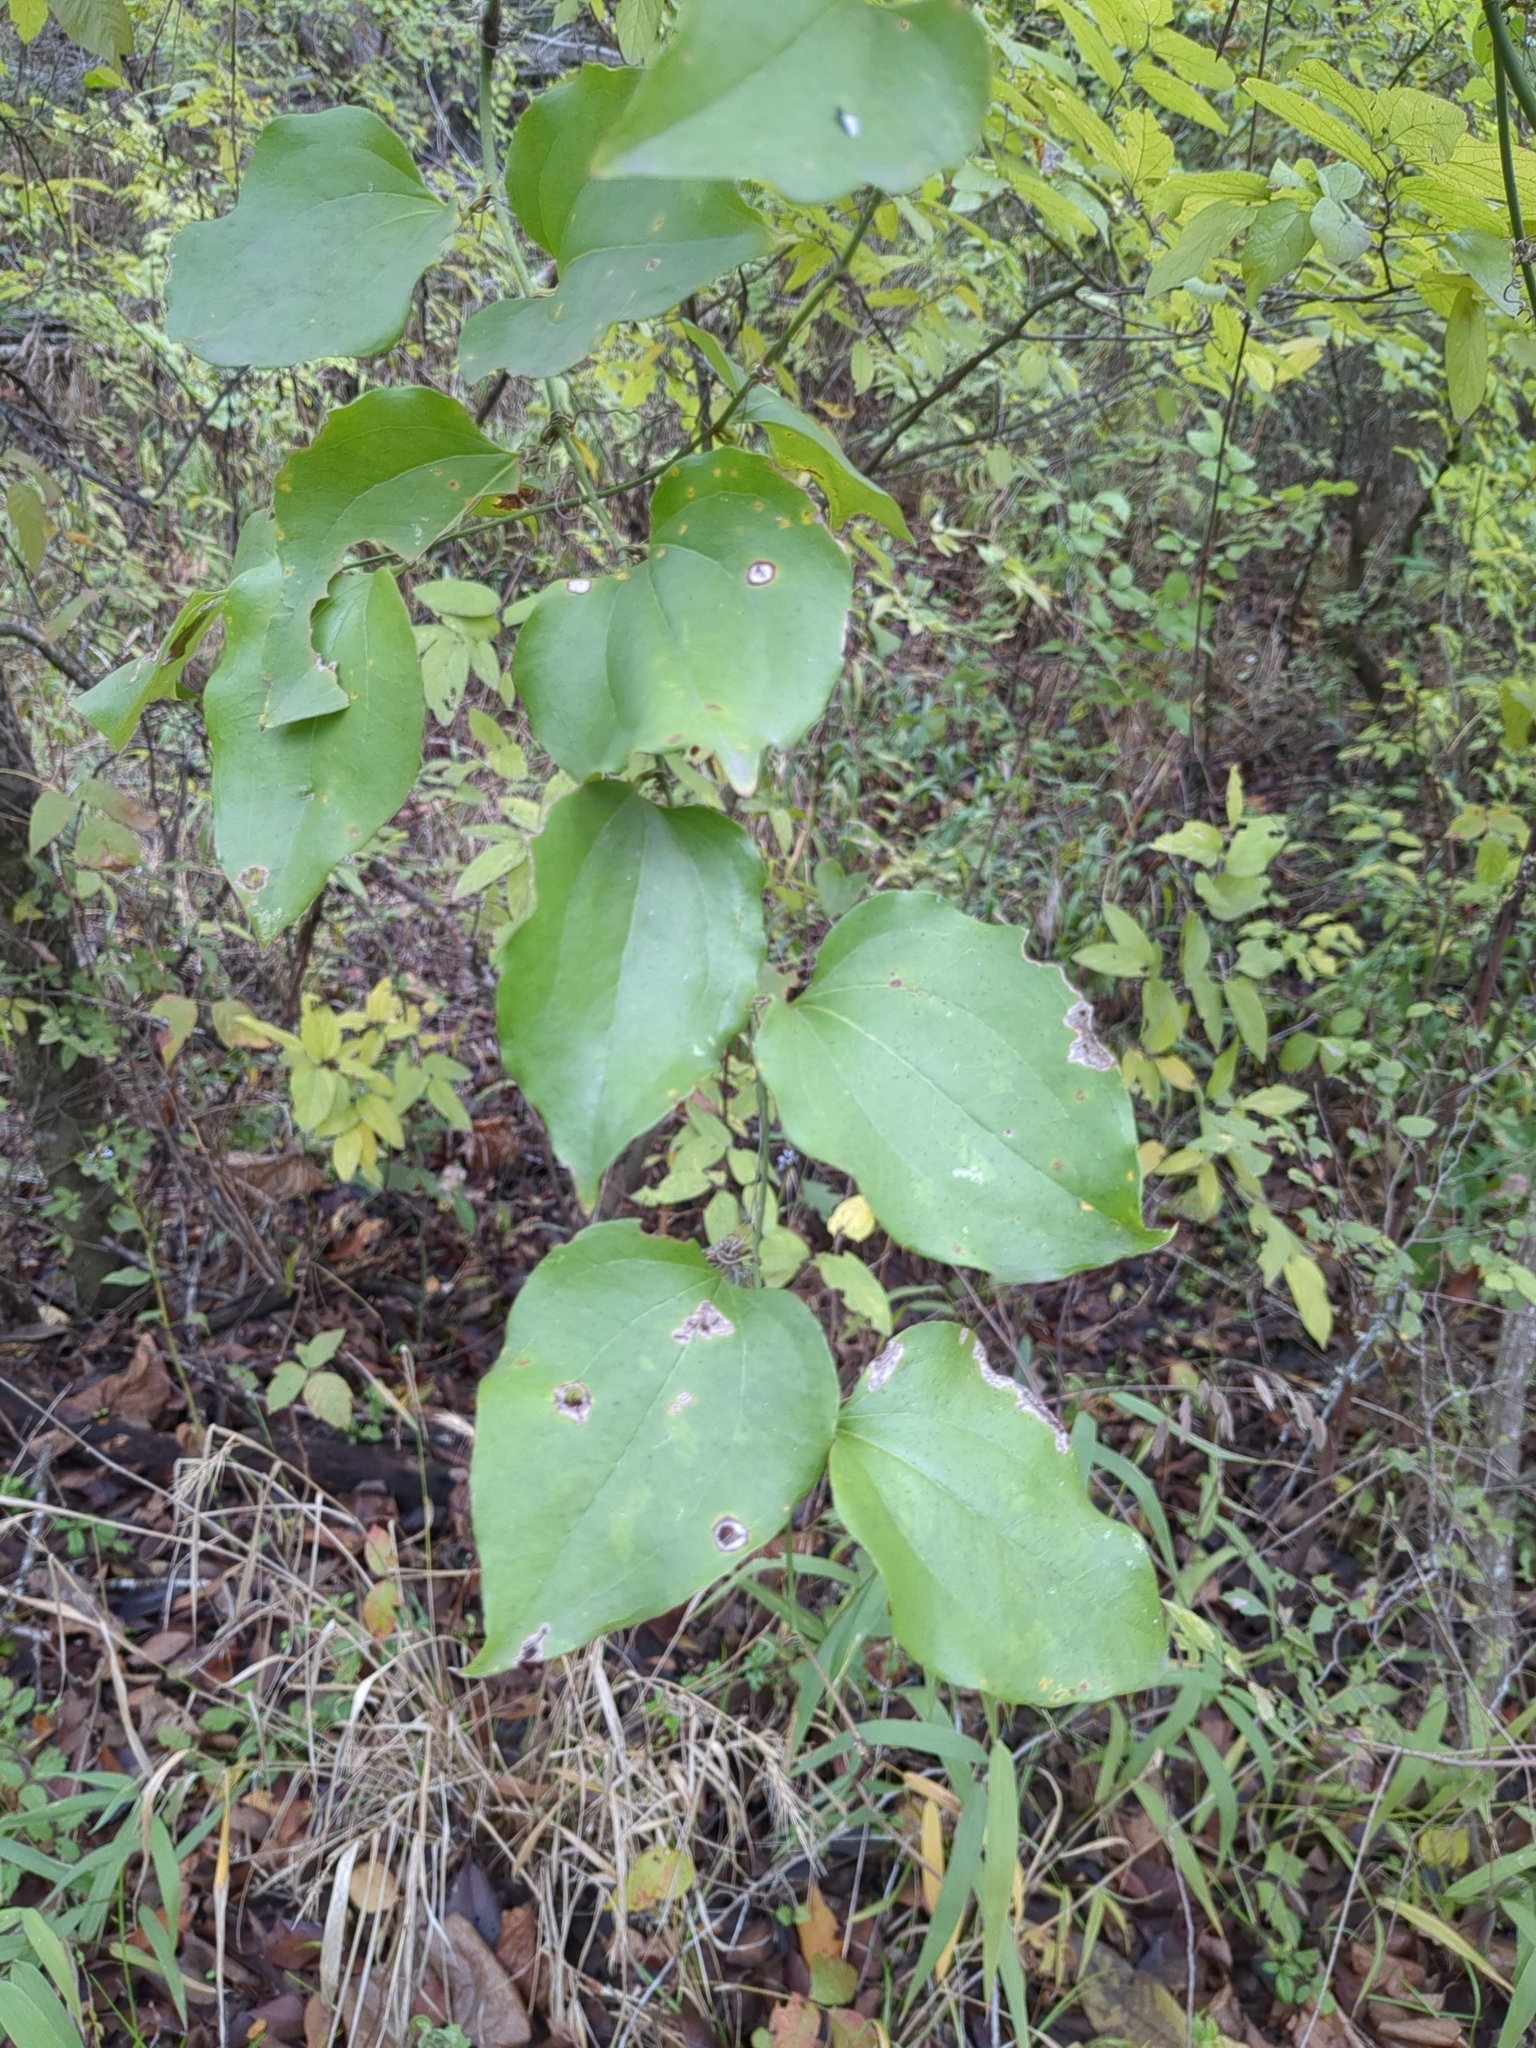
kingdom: Plantae
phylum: Tracheophyta
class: Liliopsida
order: Liliales
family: Smilacaceae
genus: Smilax
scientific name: Smilax tamnoides
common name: Hellfetter
